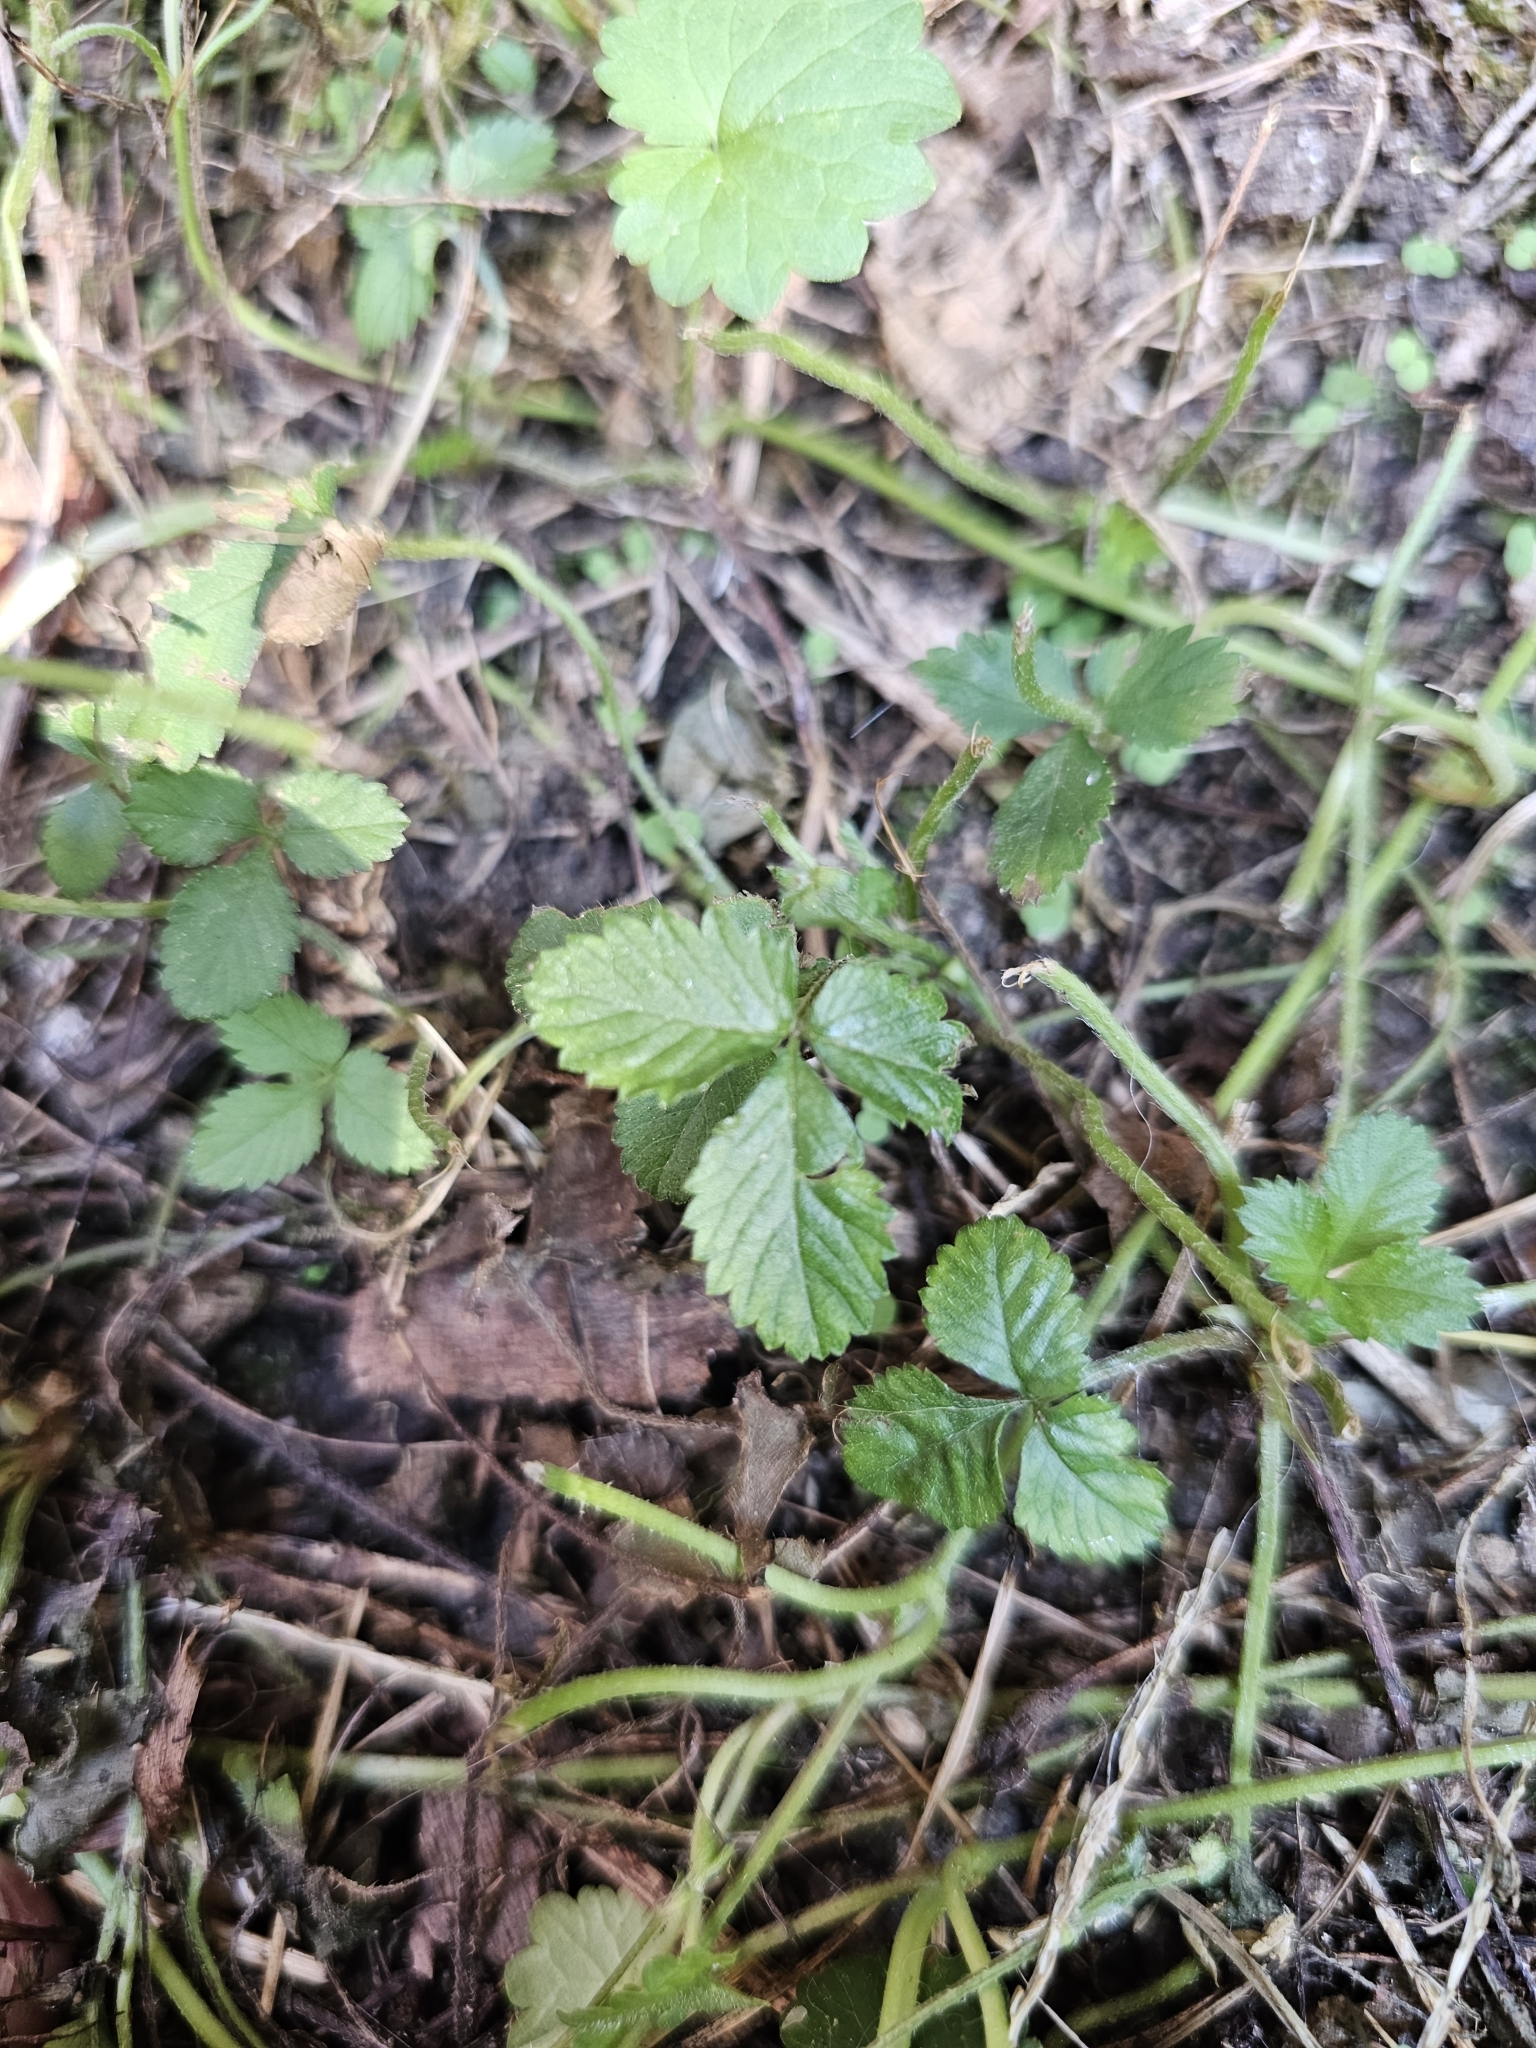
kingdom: Plantae
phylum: Tracheophyta
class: Magnoliopsida
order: Rosales
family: Rosaceae
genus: Potentilla
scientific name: Potentilla indica
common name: Yellow-flowered strawberry
